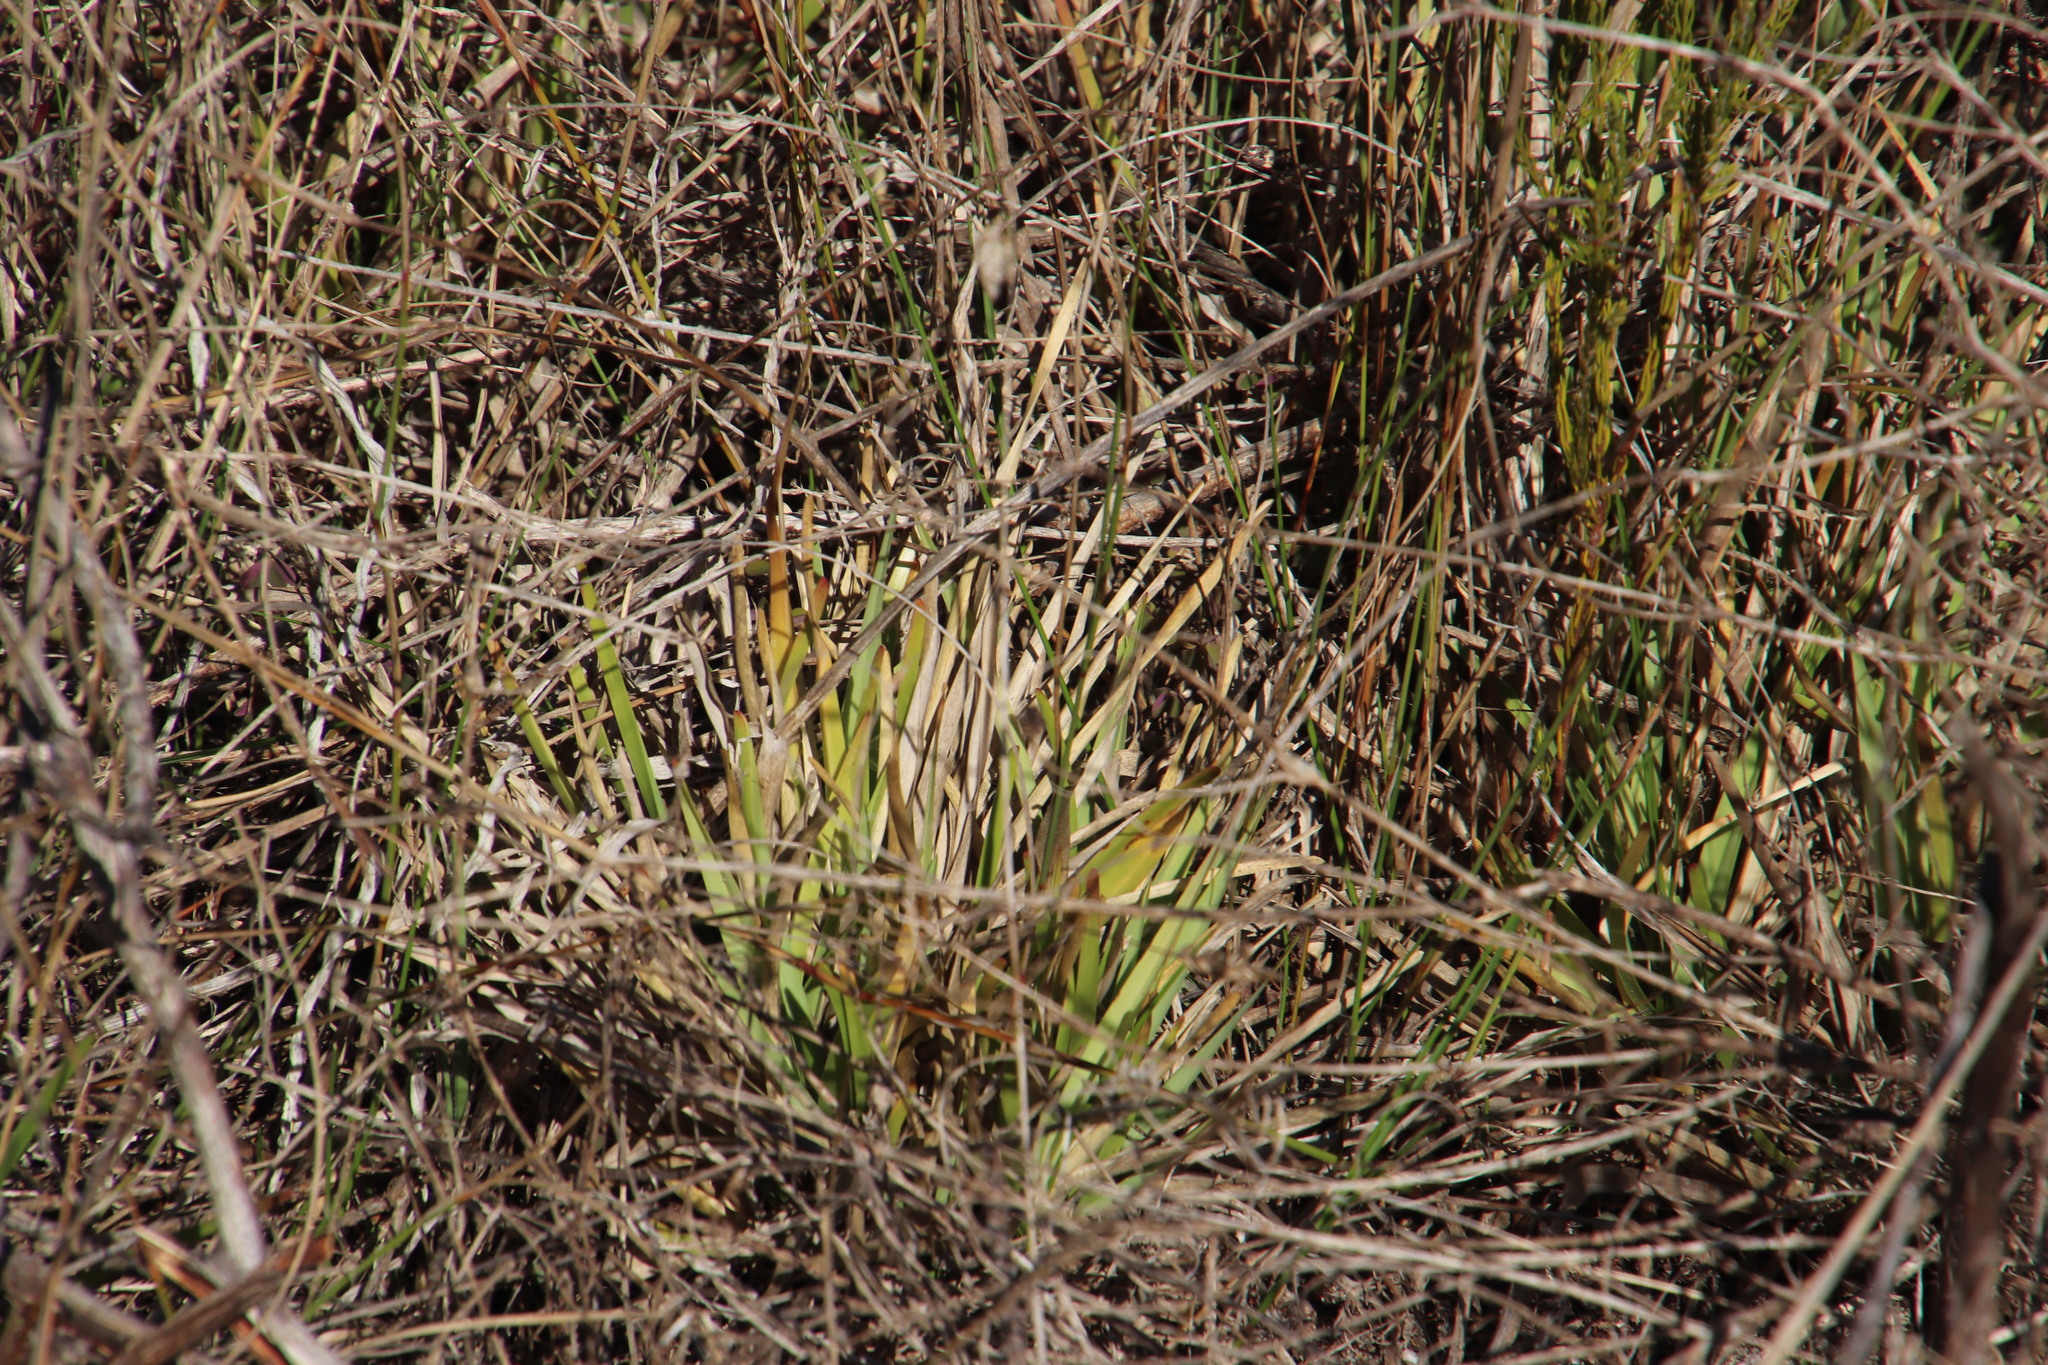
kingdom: Plantae
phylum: Tracheophyta
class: Liliopsida
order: Poales
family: Poaceae
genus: Stenotaphrum
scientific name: Stenotaphrum secundatum
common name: St. augustine grass
